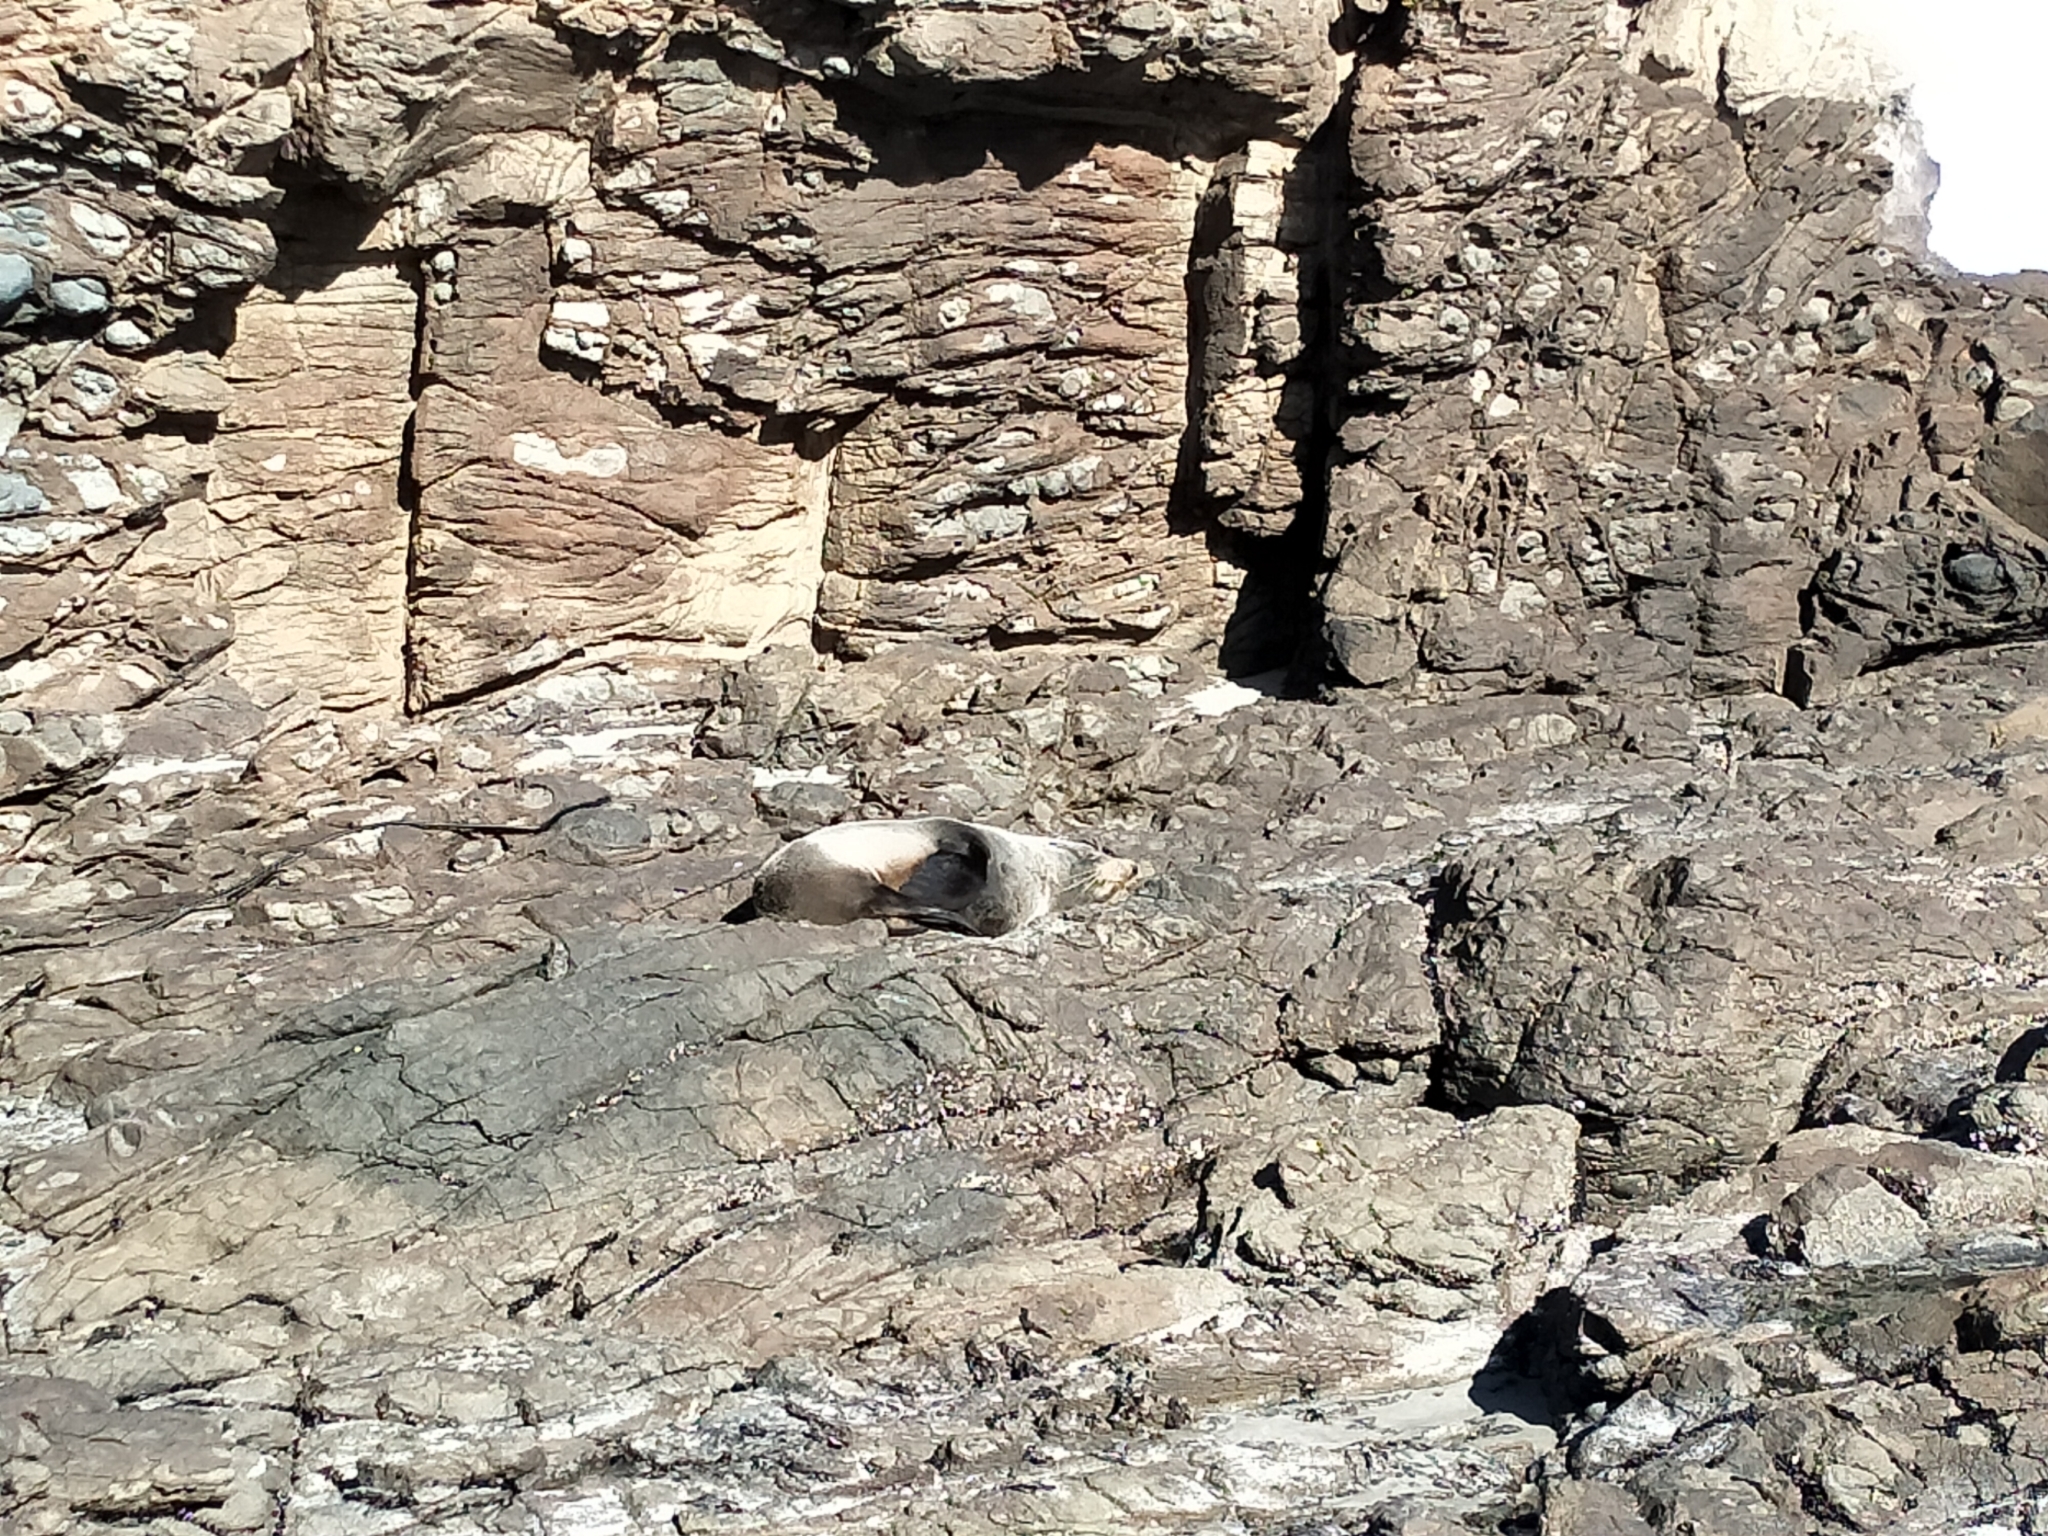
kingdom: Animalia
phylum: Chordata
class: Mammalia
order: Carnivora
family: Otariidae
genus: Arctocephalus
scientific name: Arctocephalus forsteri
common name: New zealand fur seal
